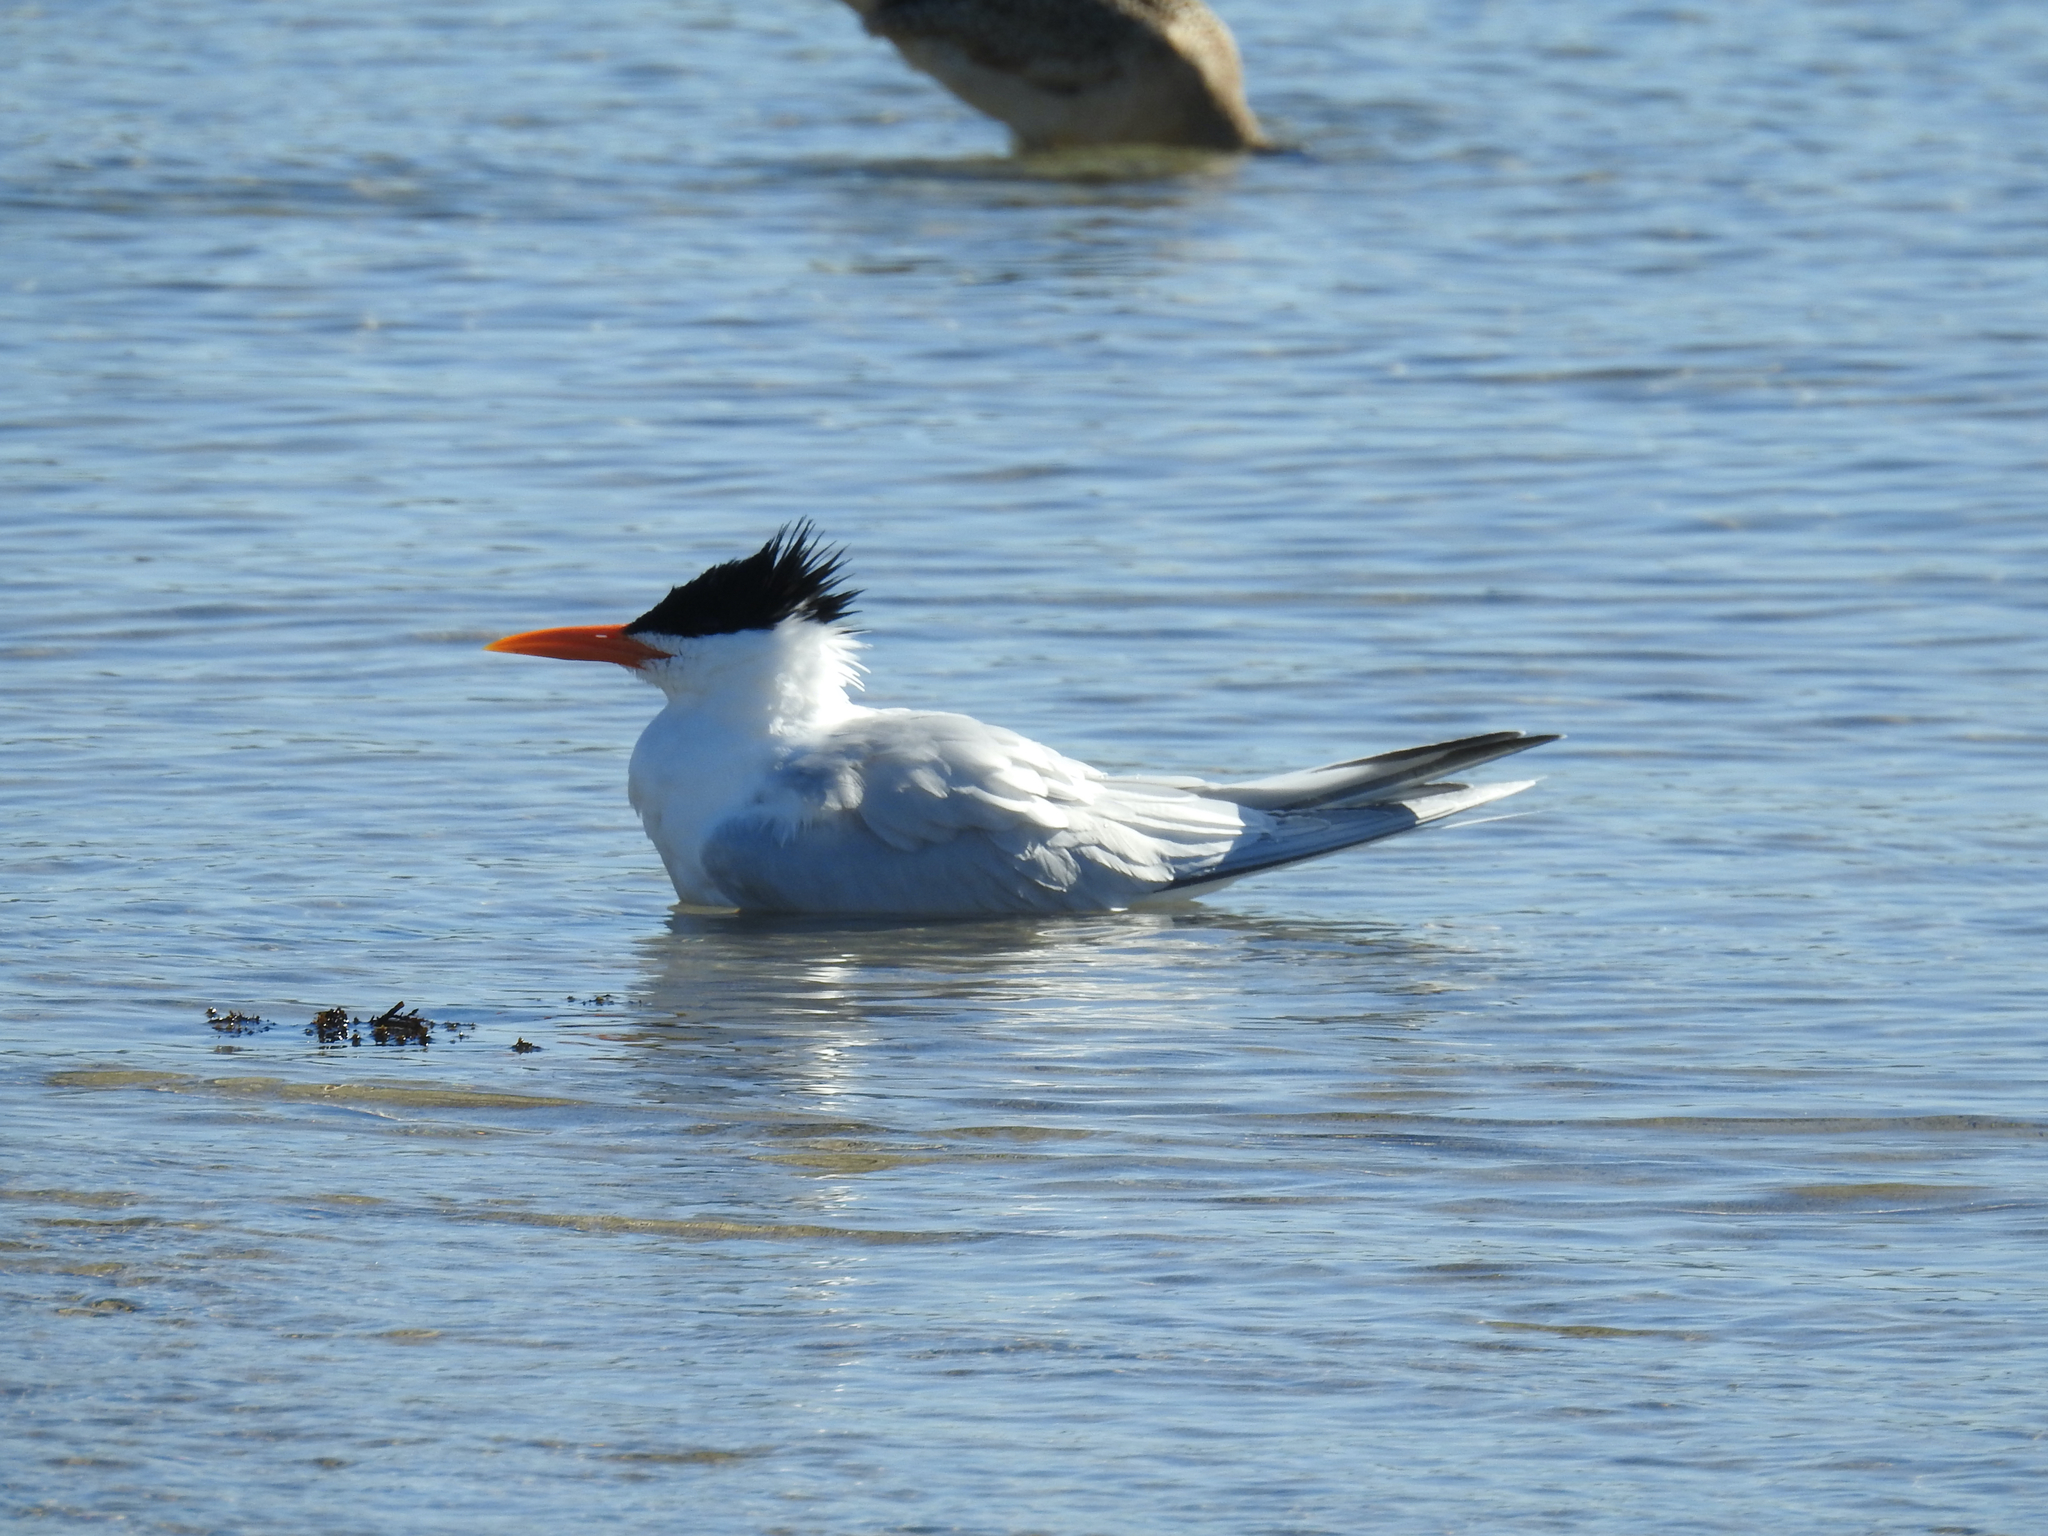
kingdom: Animalia
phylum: Chordata
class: Aves
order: Charadriiformes
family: Laridae
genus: Thalasseus
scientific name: Thalasseus maximus
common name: Royal tern
